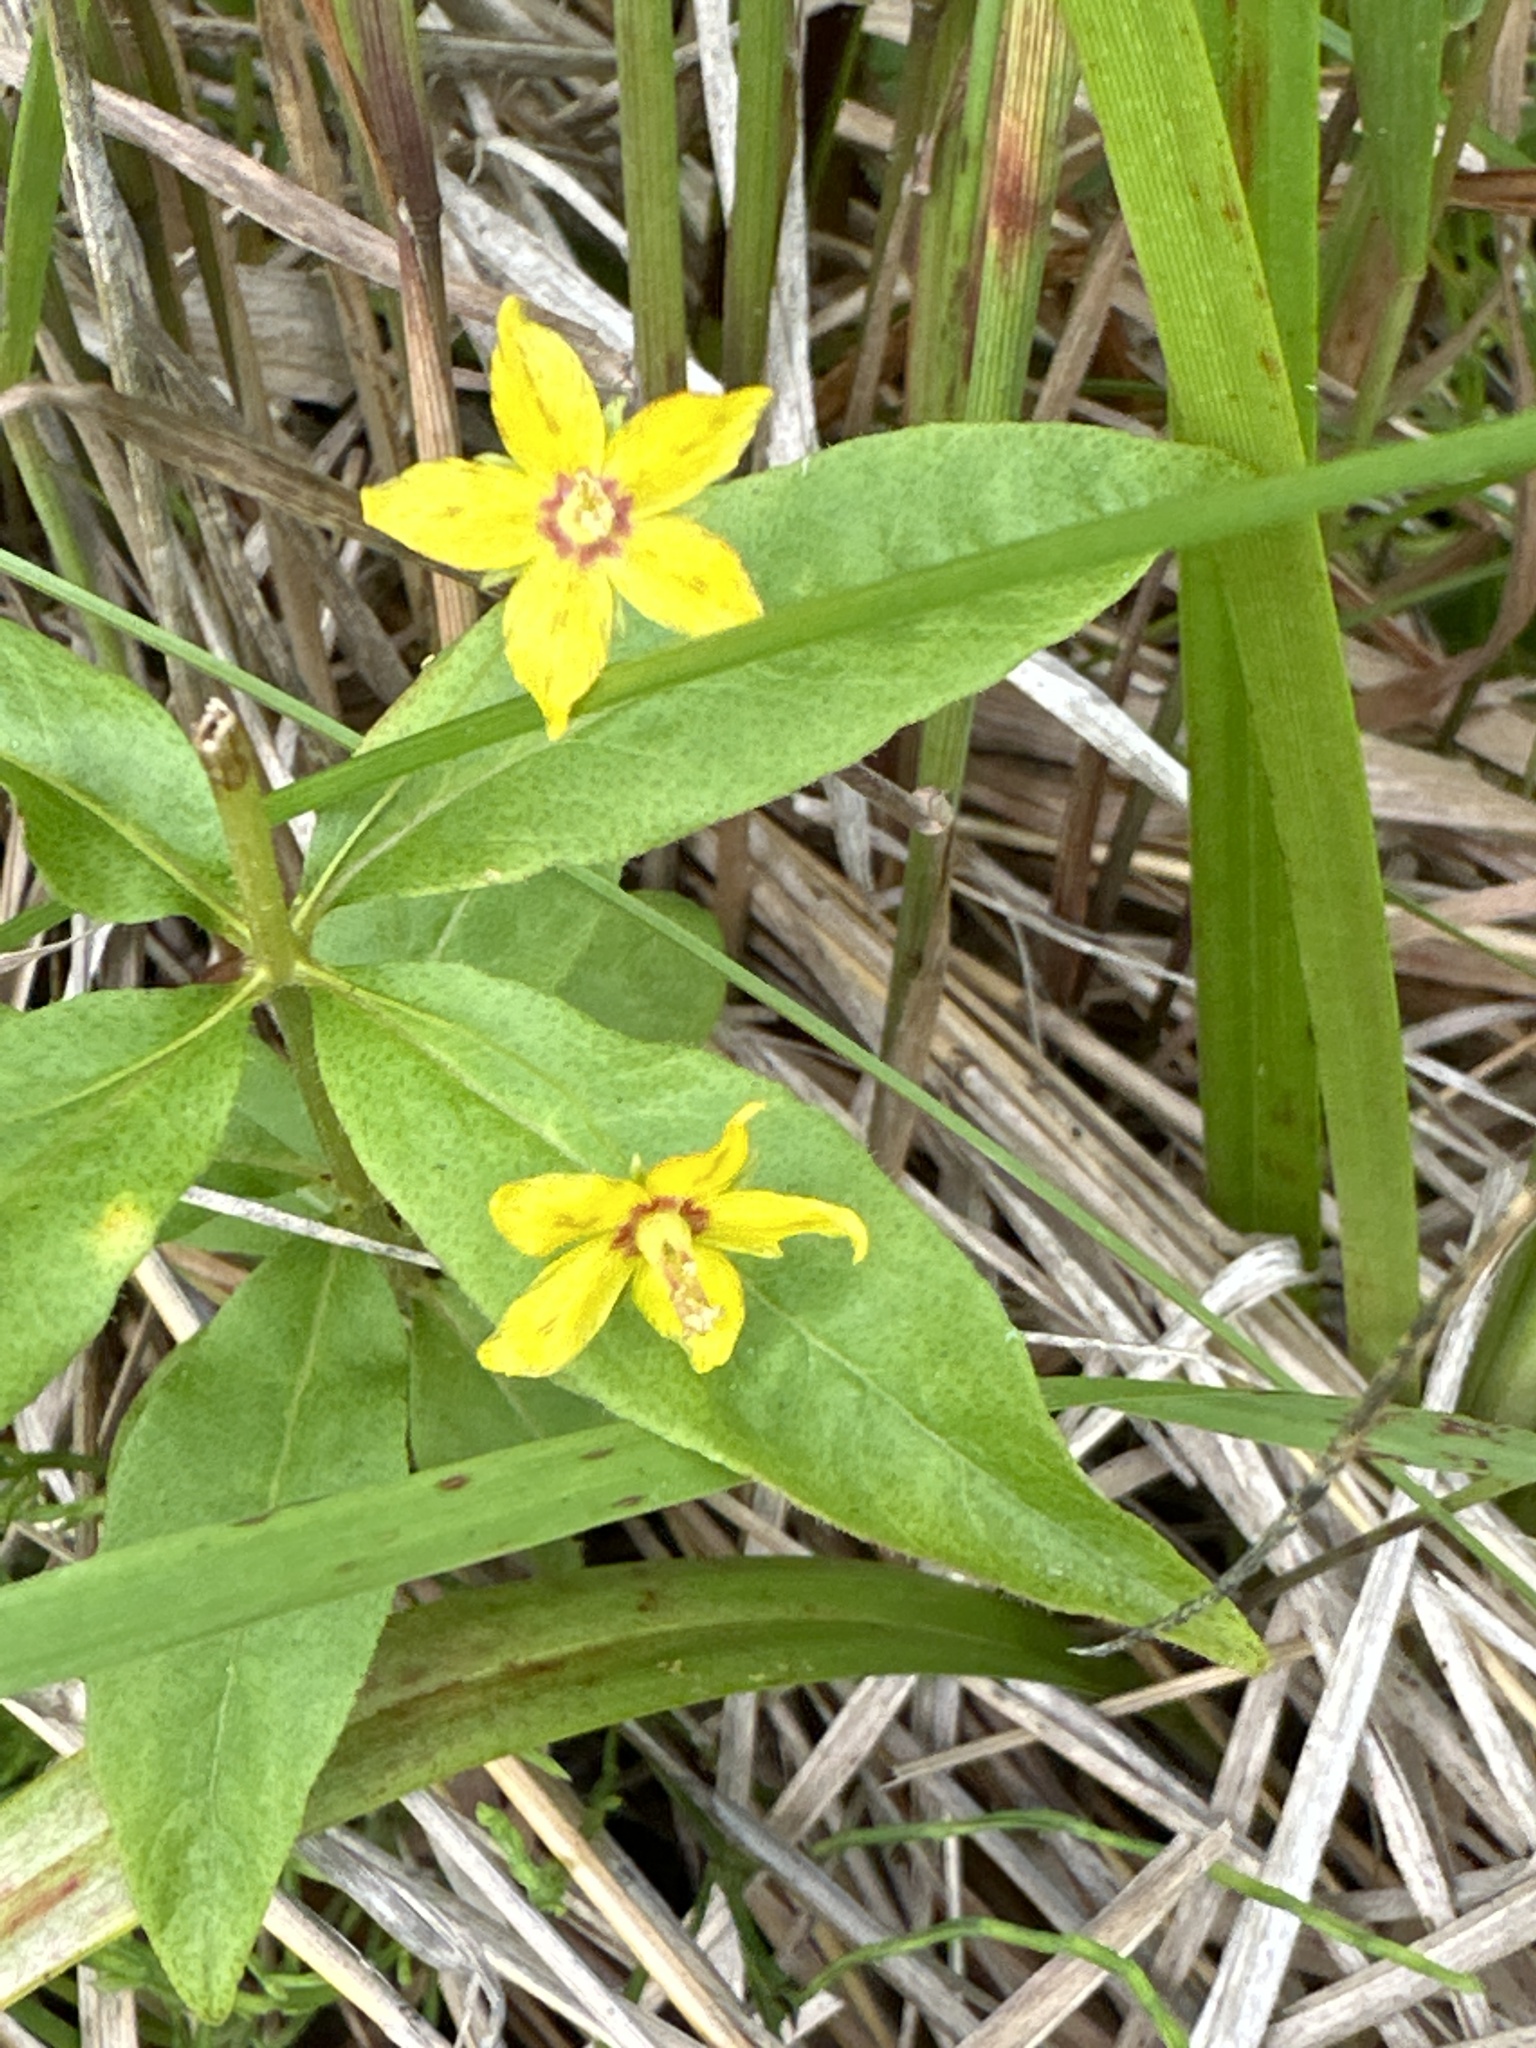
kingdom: Plantae
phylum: Tracheophyta
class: Magnoliopsida
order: Ericales
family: Primulaceae
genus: Lysimachia
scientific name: Lysimachia quadrifolia
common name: Whorled loosestrife
